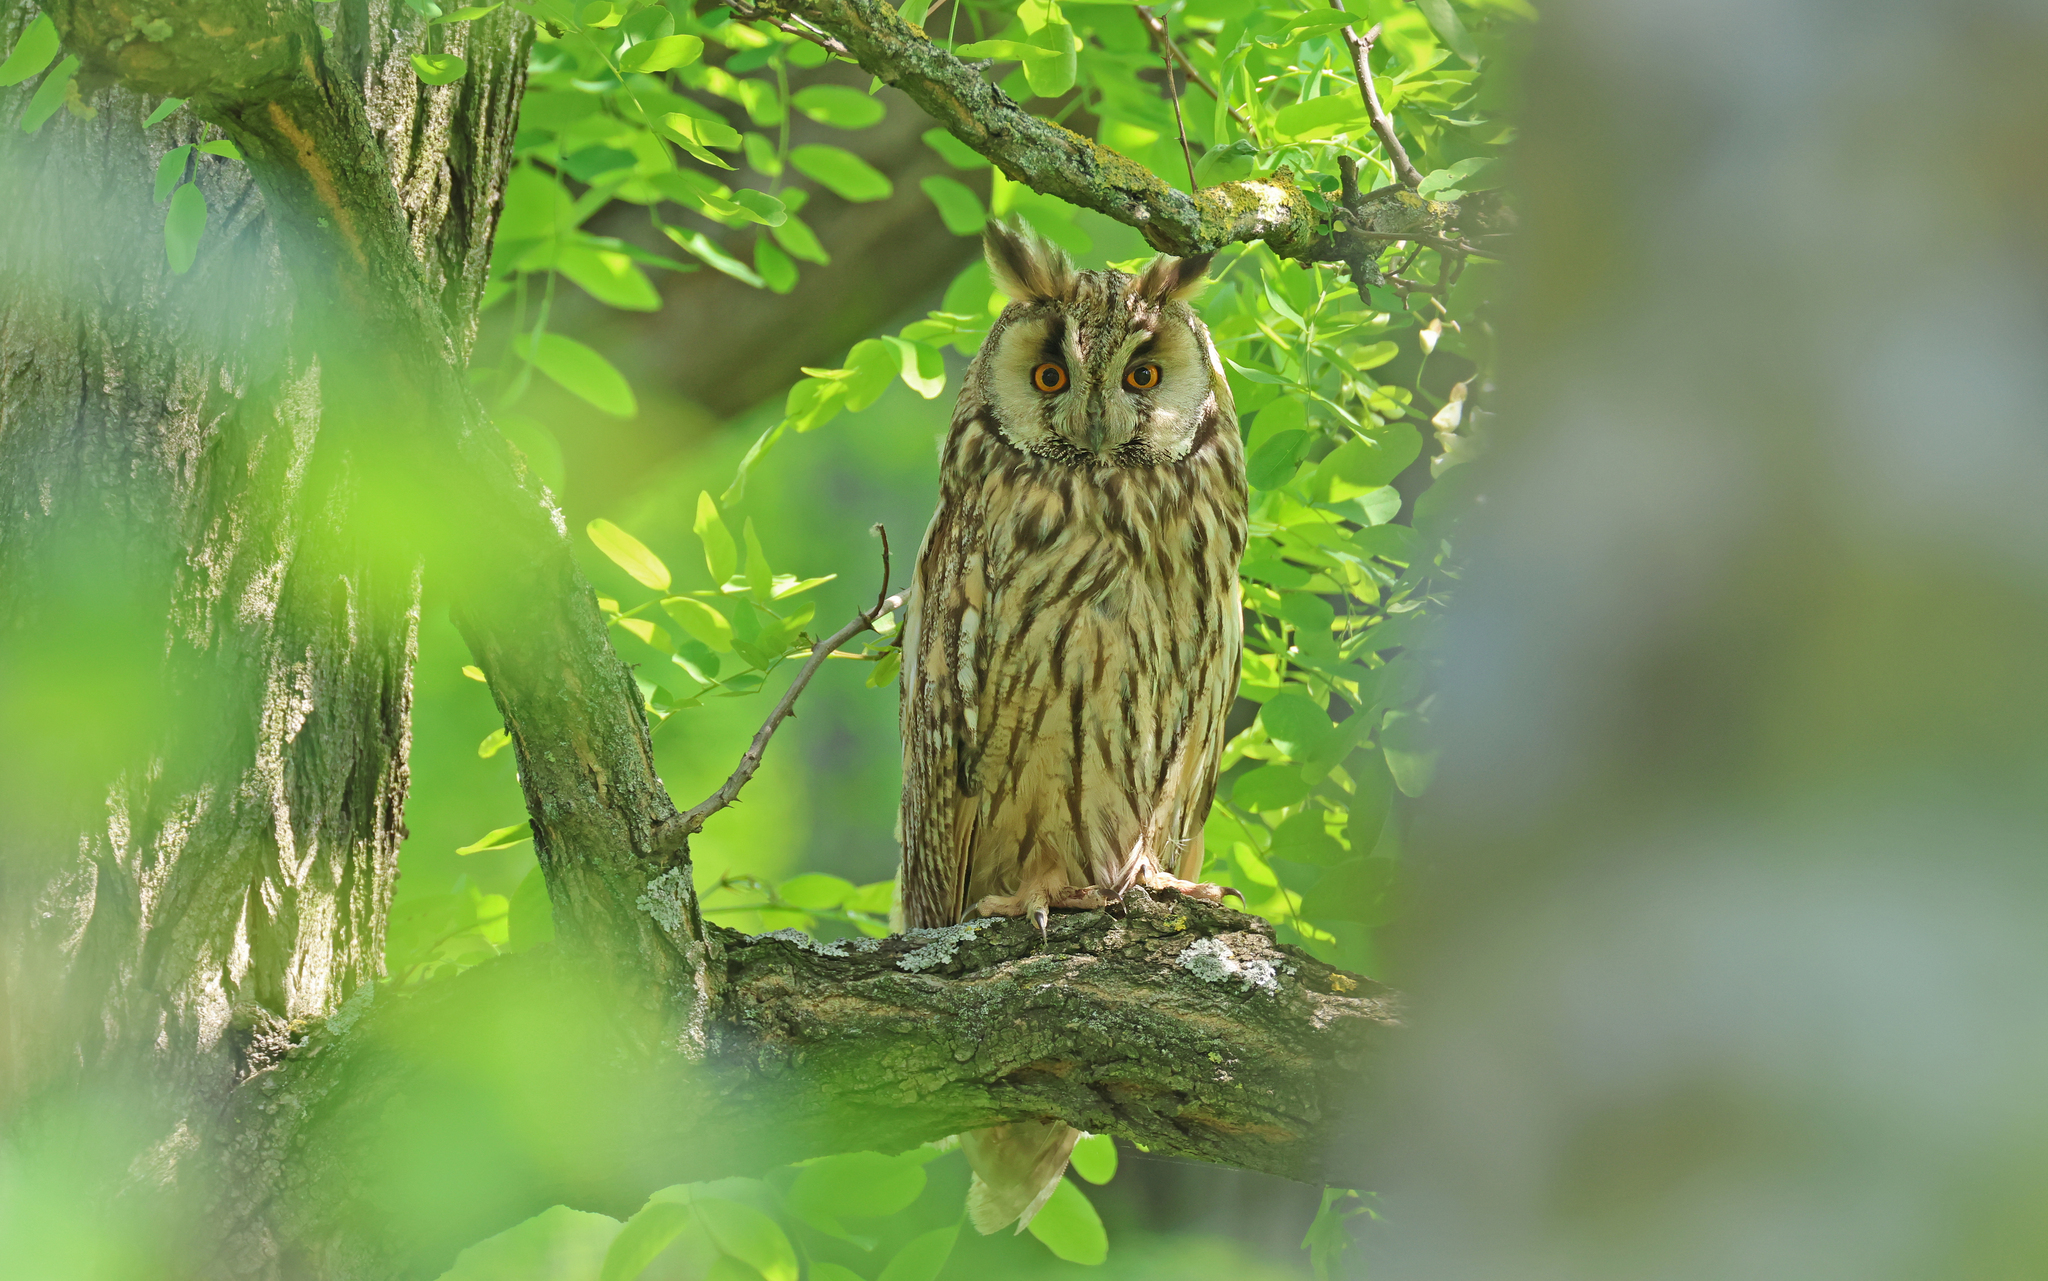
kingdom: Animalia
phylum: Chordata
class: Aves
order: Strigiformes
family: Strigidae
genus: Asio
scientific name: Asio otus
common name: Long-eared owl
